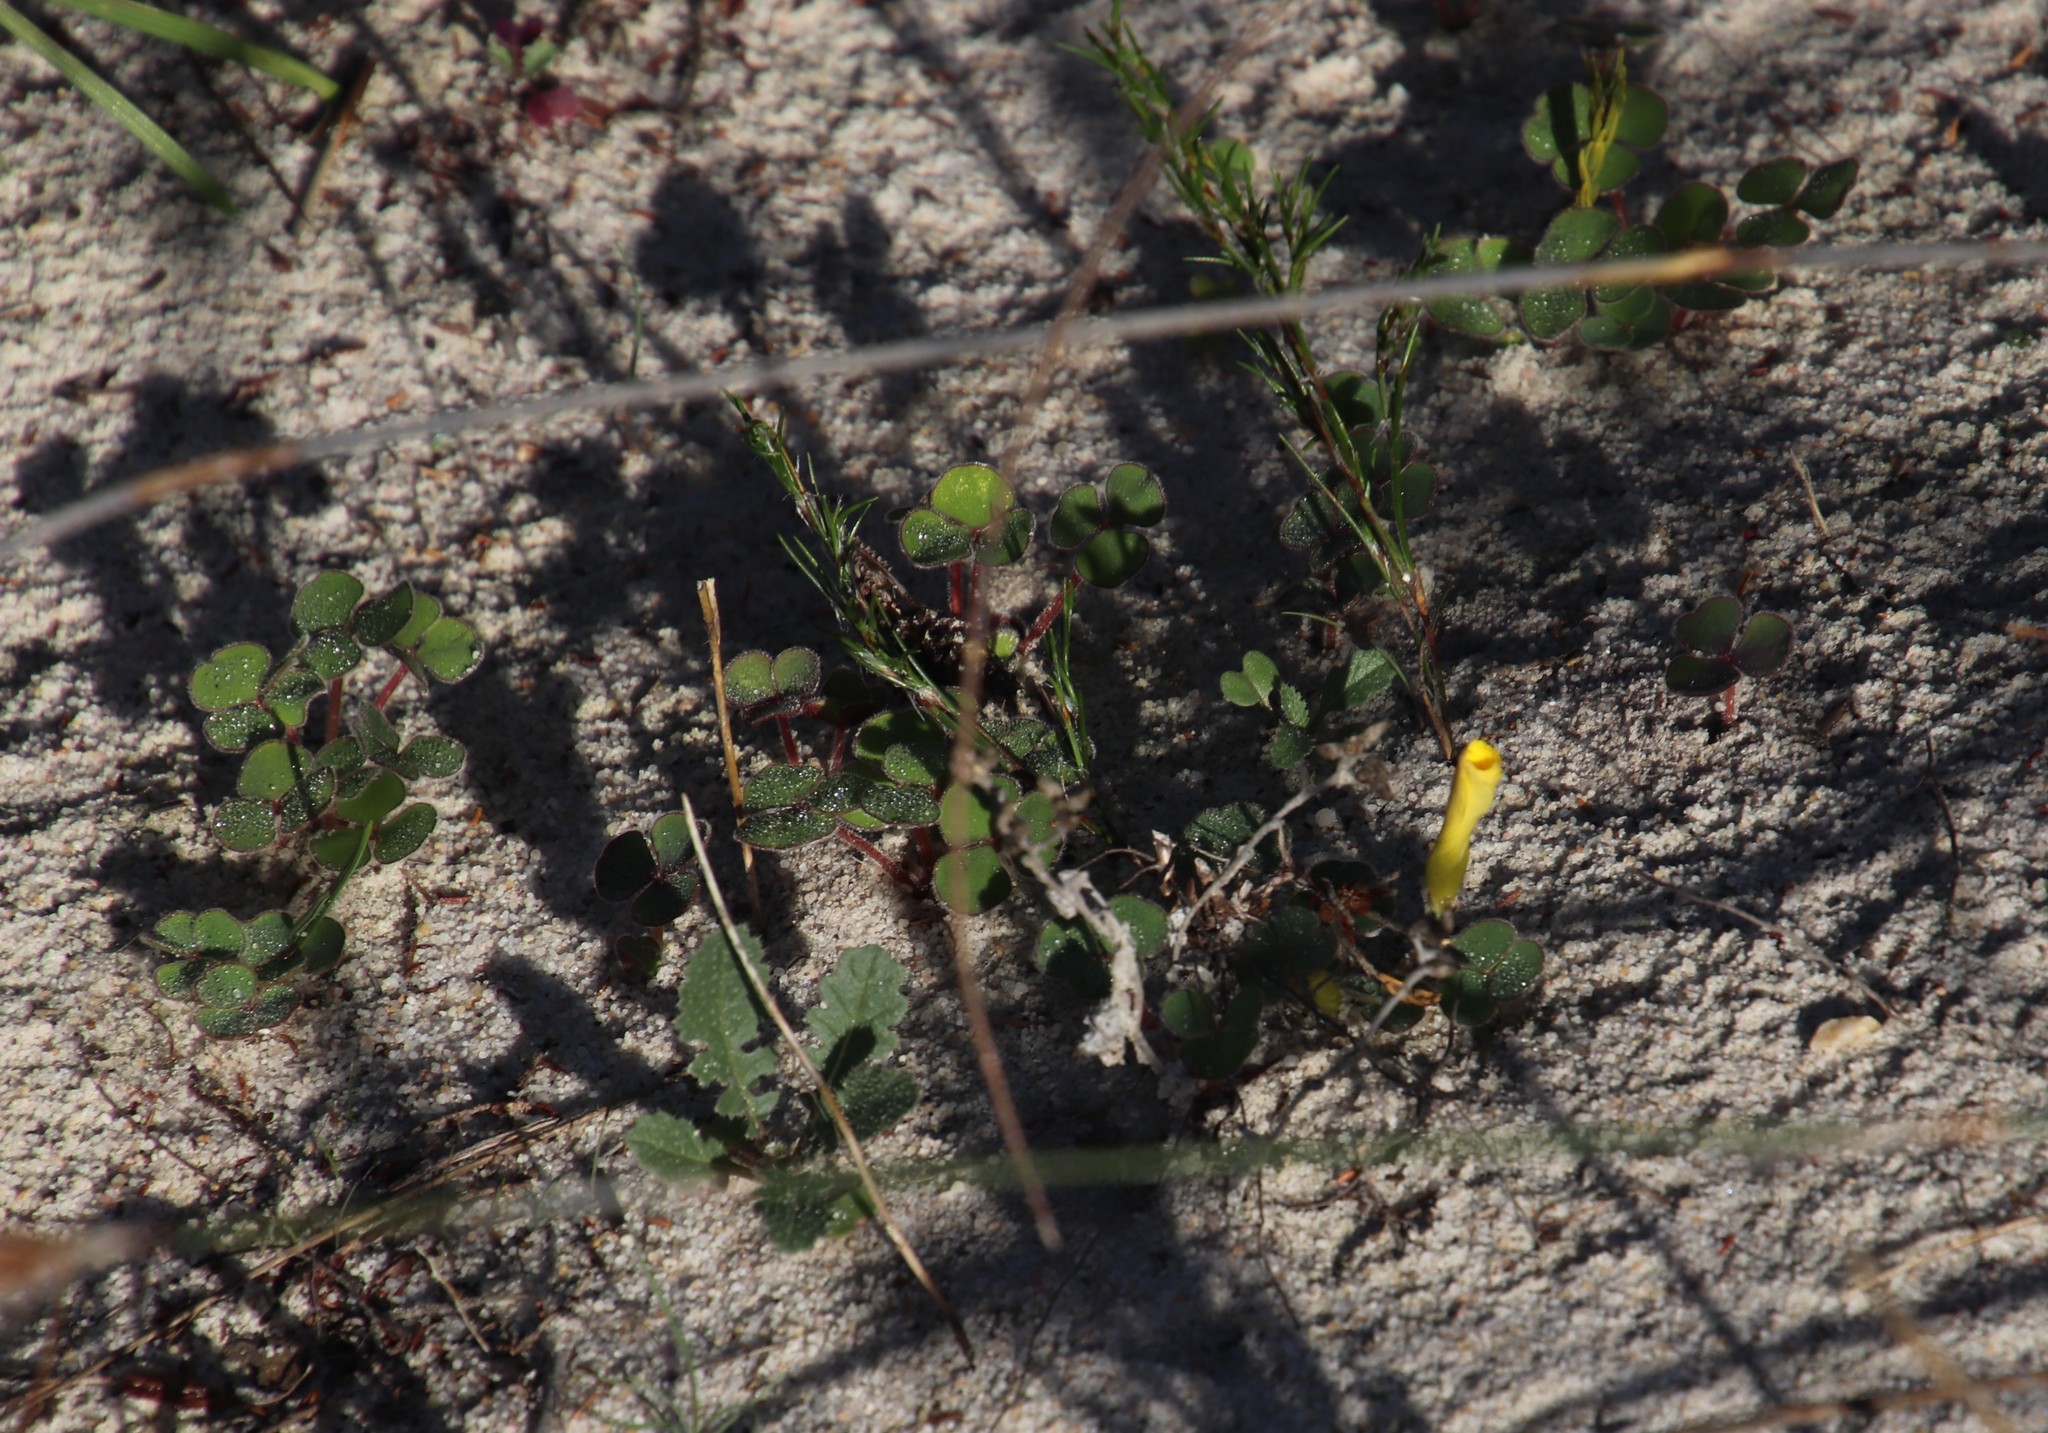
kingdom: Plantae
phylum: Tracheophyta
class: Magnoliopsida
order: Oxalidales
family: Oxalidaceae
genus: Oxalis
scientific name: Oxalis luteola
